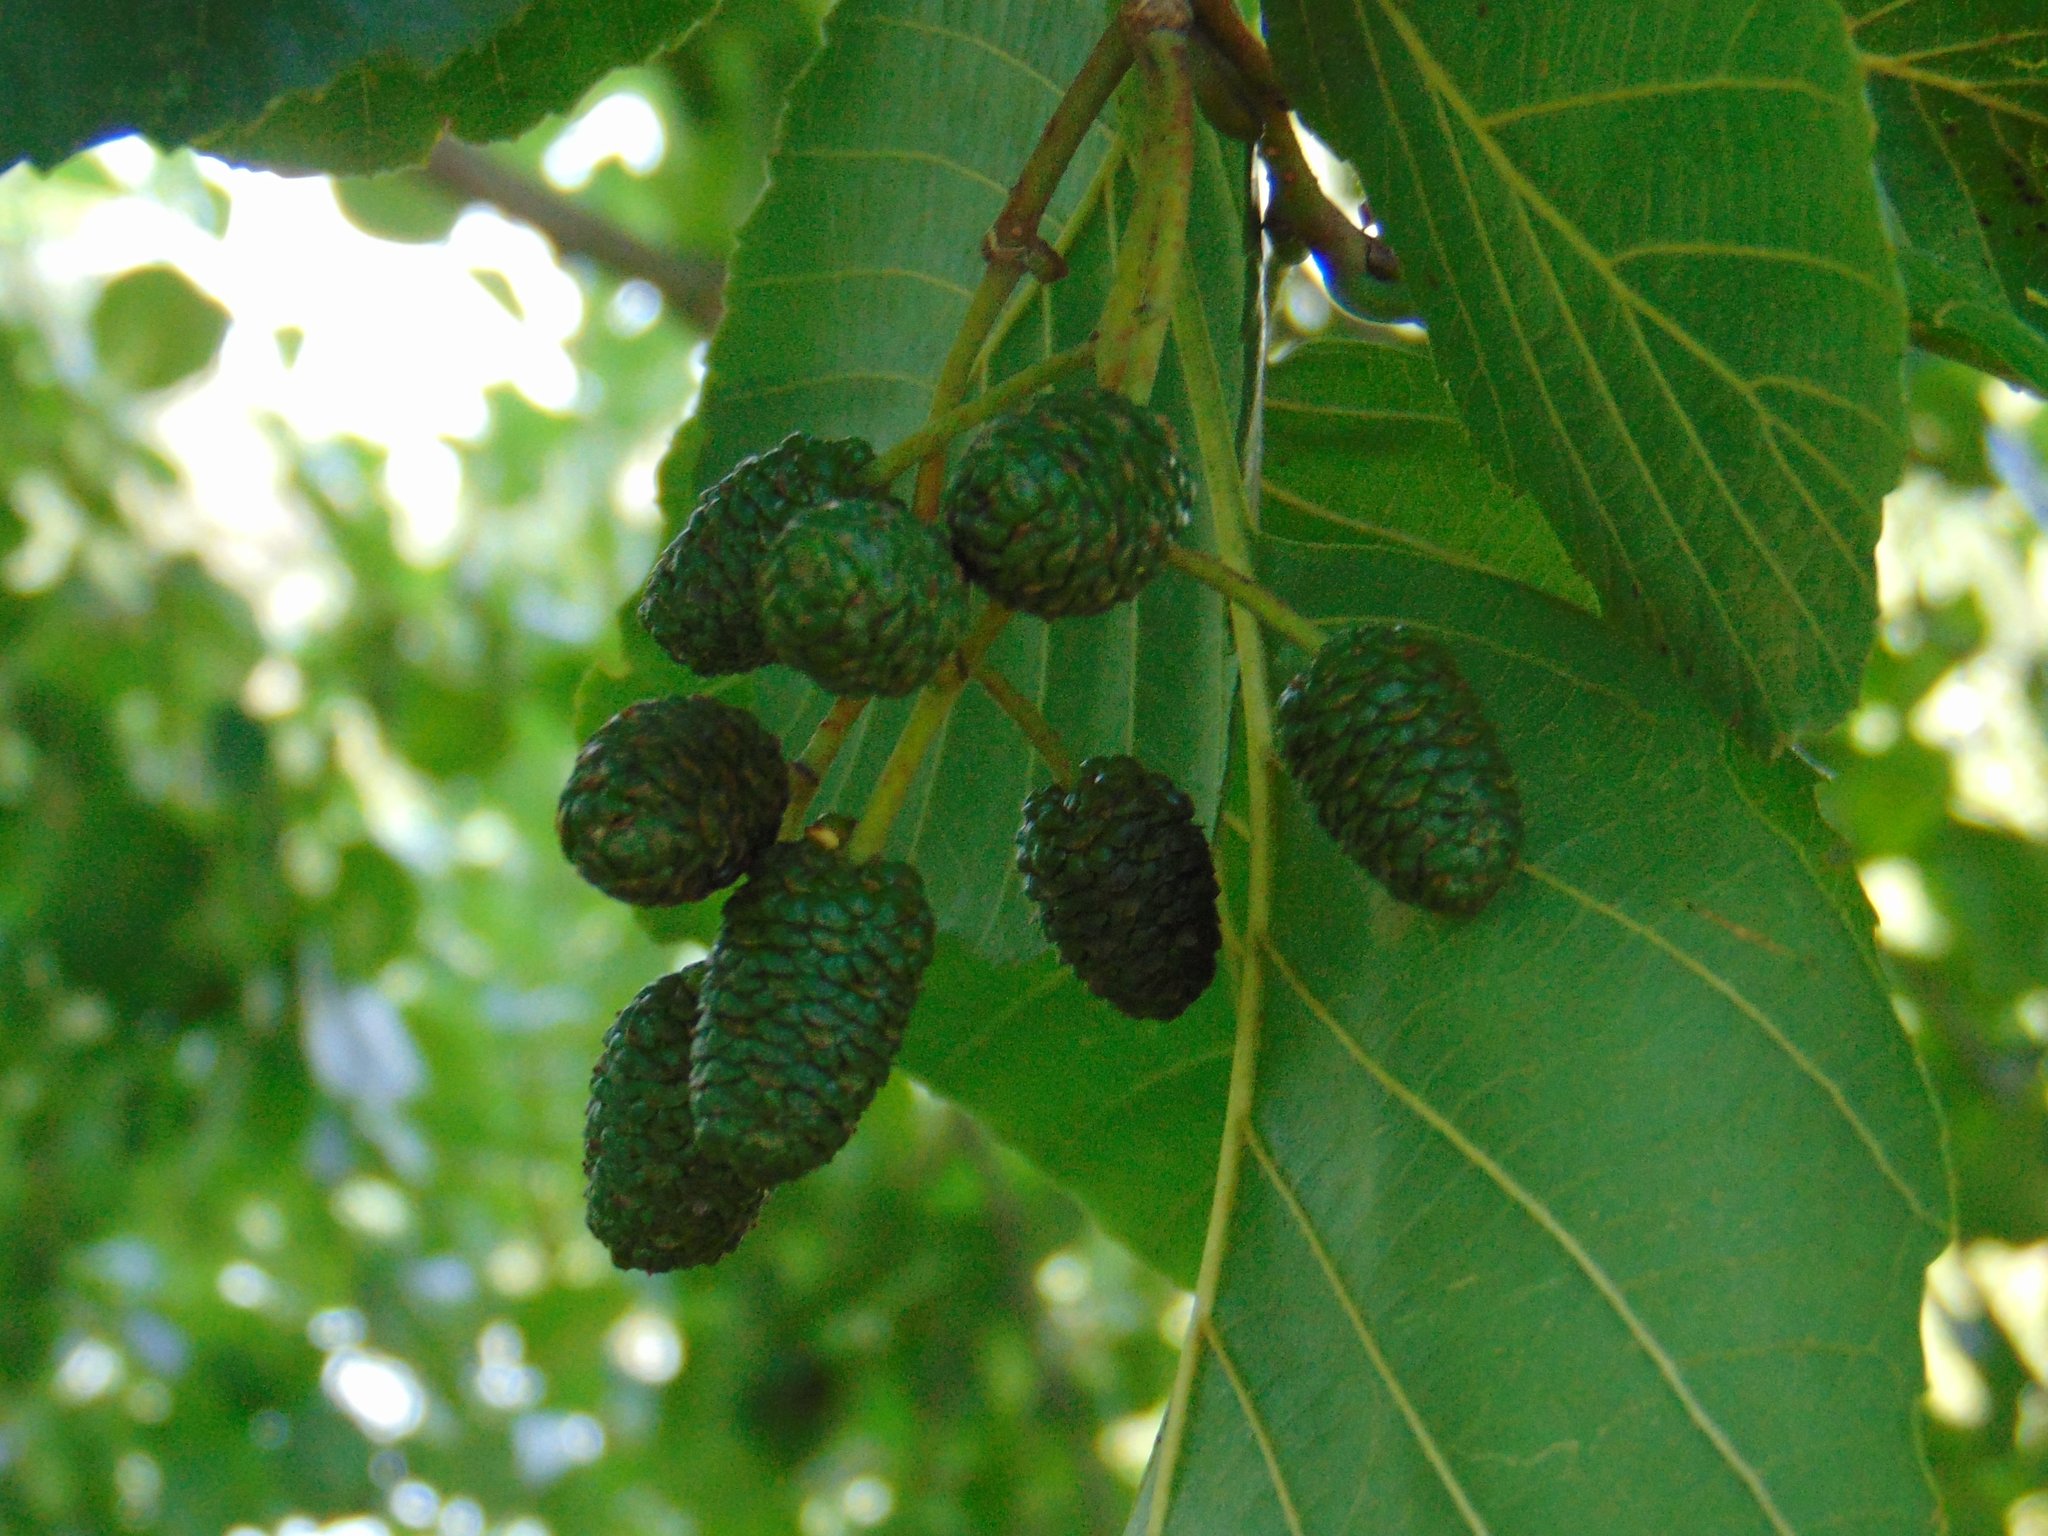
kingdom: Plantae
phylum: Tracheophyta
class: Magnoliopsida
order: Fagales
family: Betulaceae
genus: Alnus
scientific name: Alnus glutinosa
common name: Black alder
